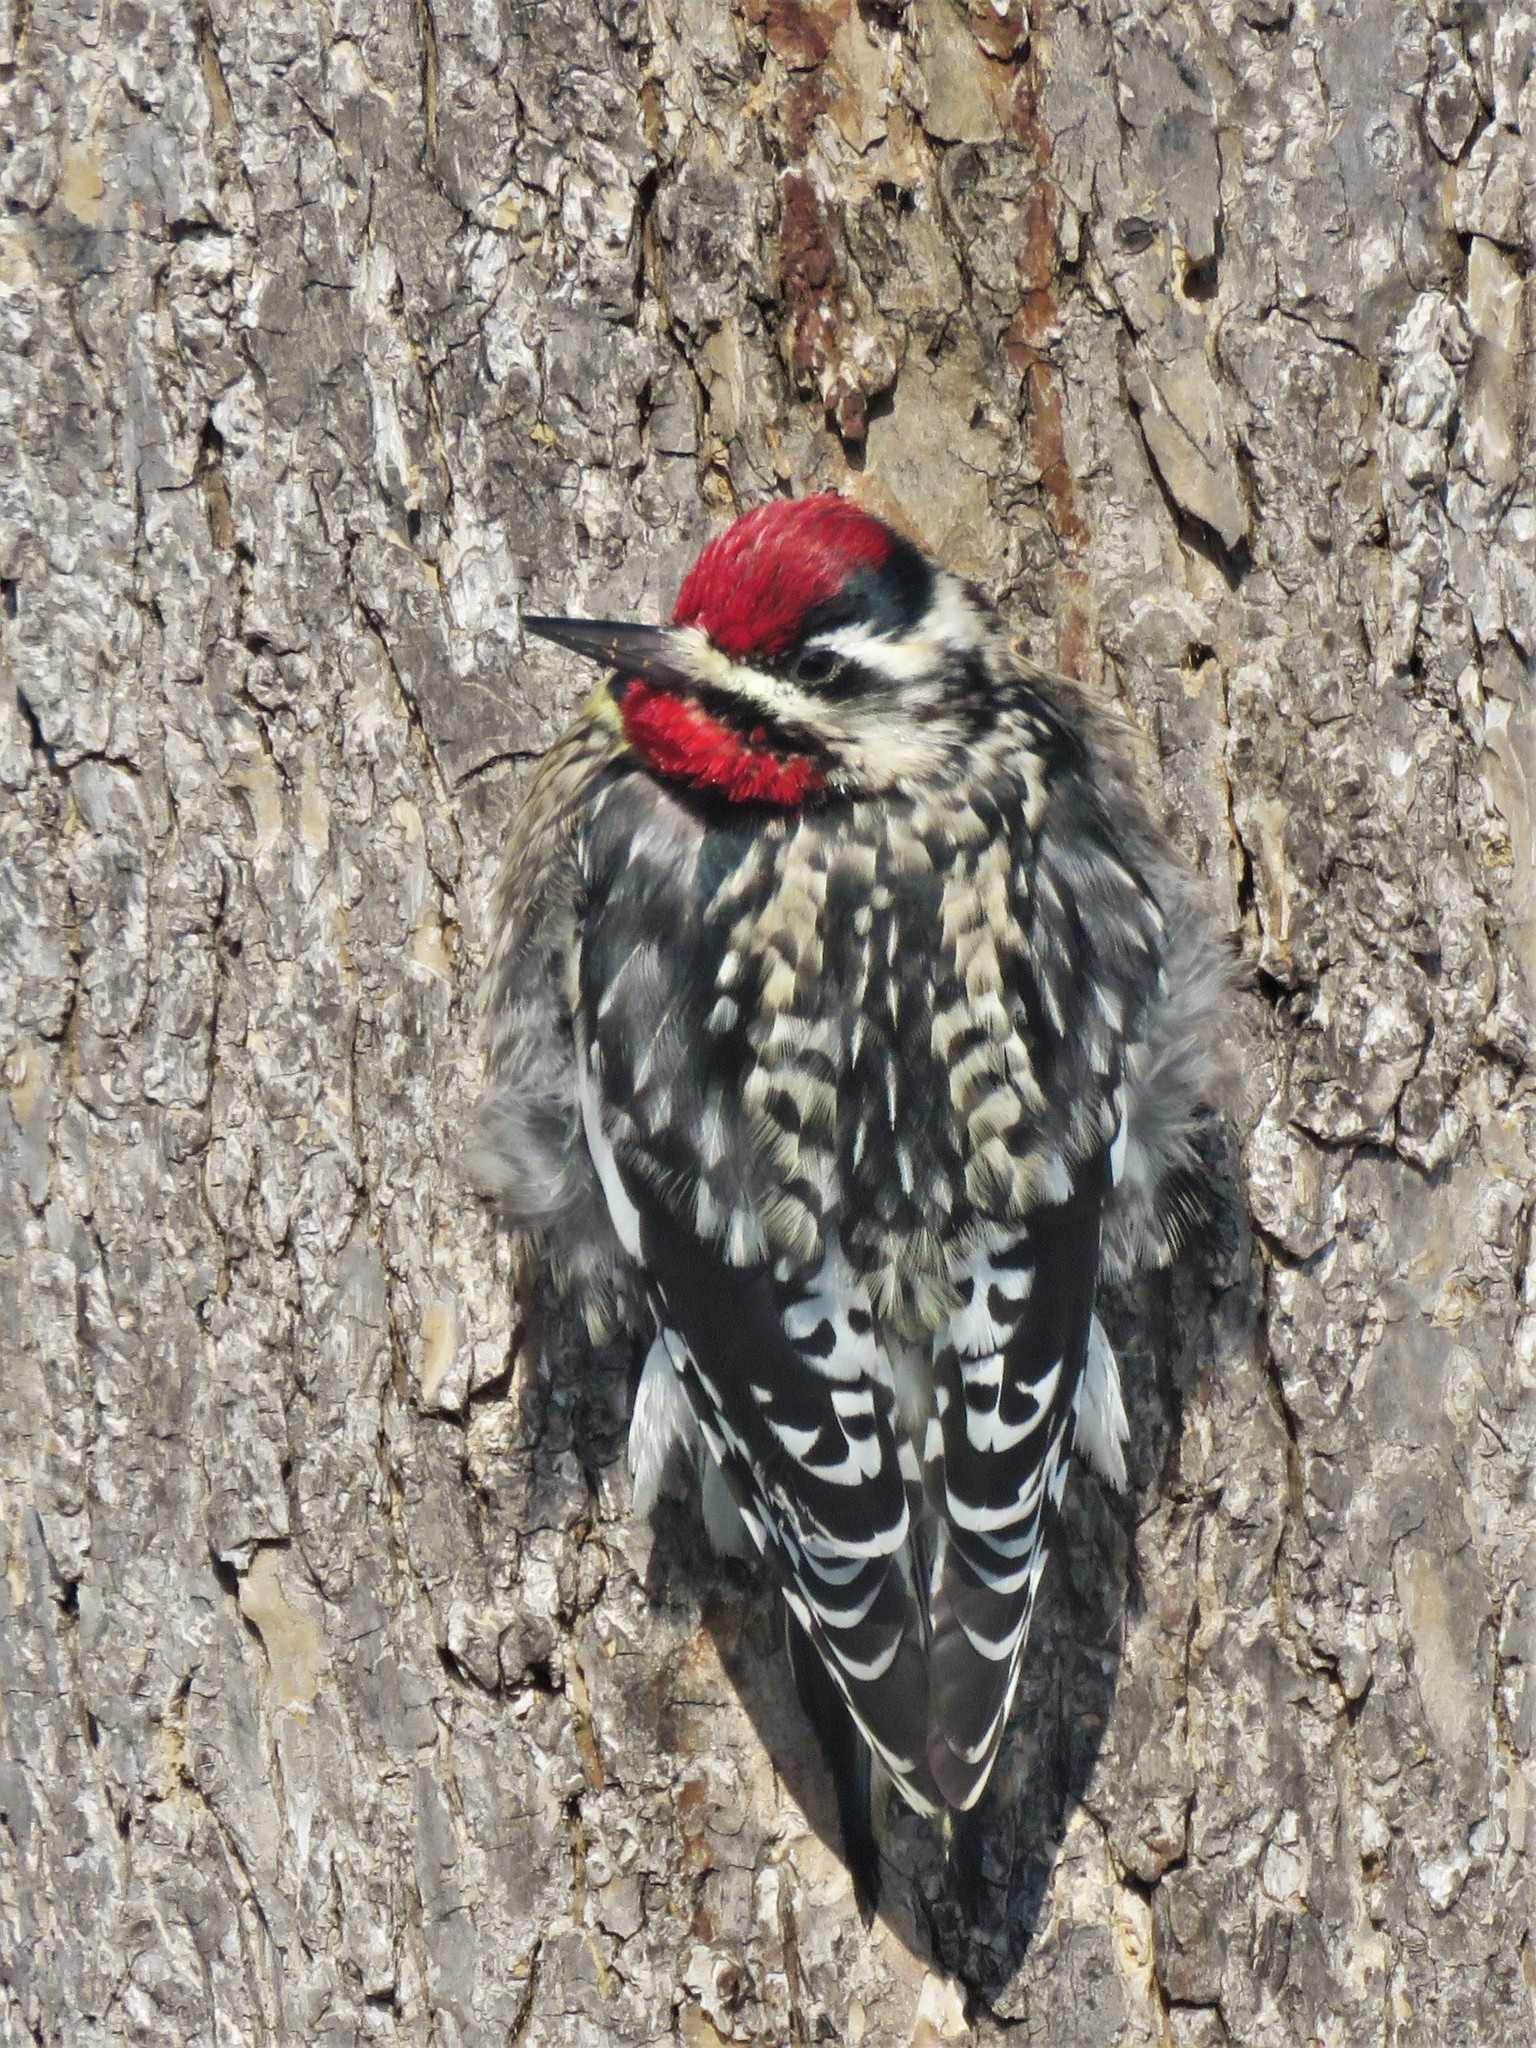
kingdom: Animalia
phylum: Chordata
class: Aves
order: Piciformes
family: Picidae
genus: Sphyrapicus
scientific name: Sphyrapicus varius
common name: Yellow-bellied sapsucker
